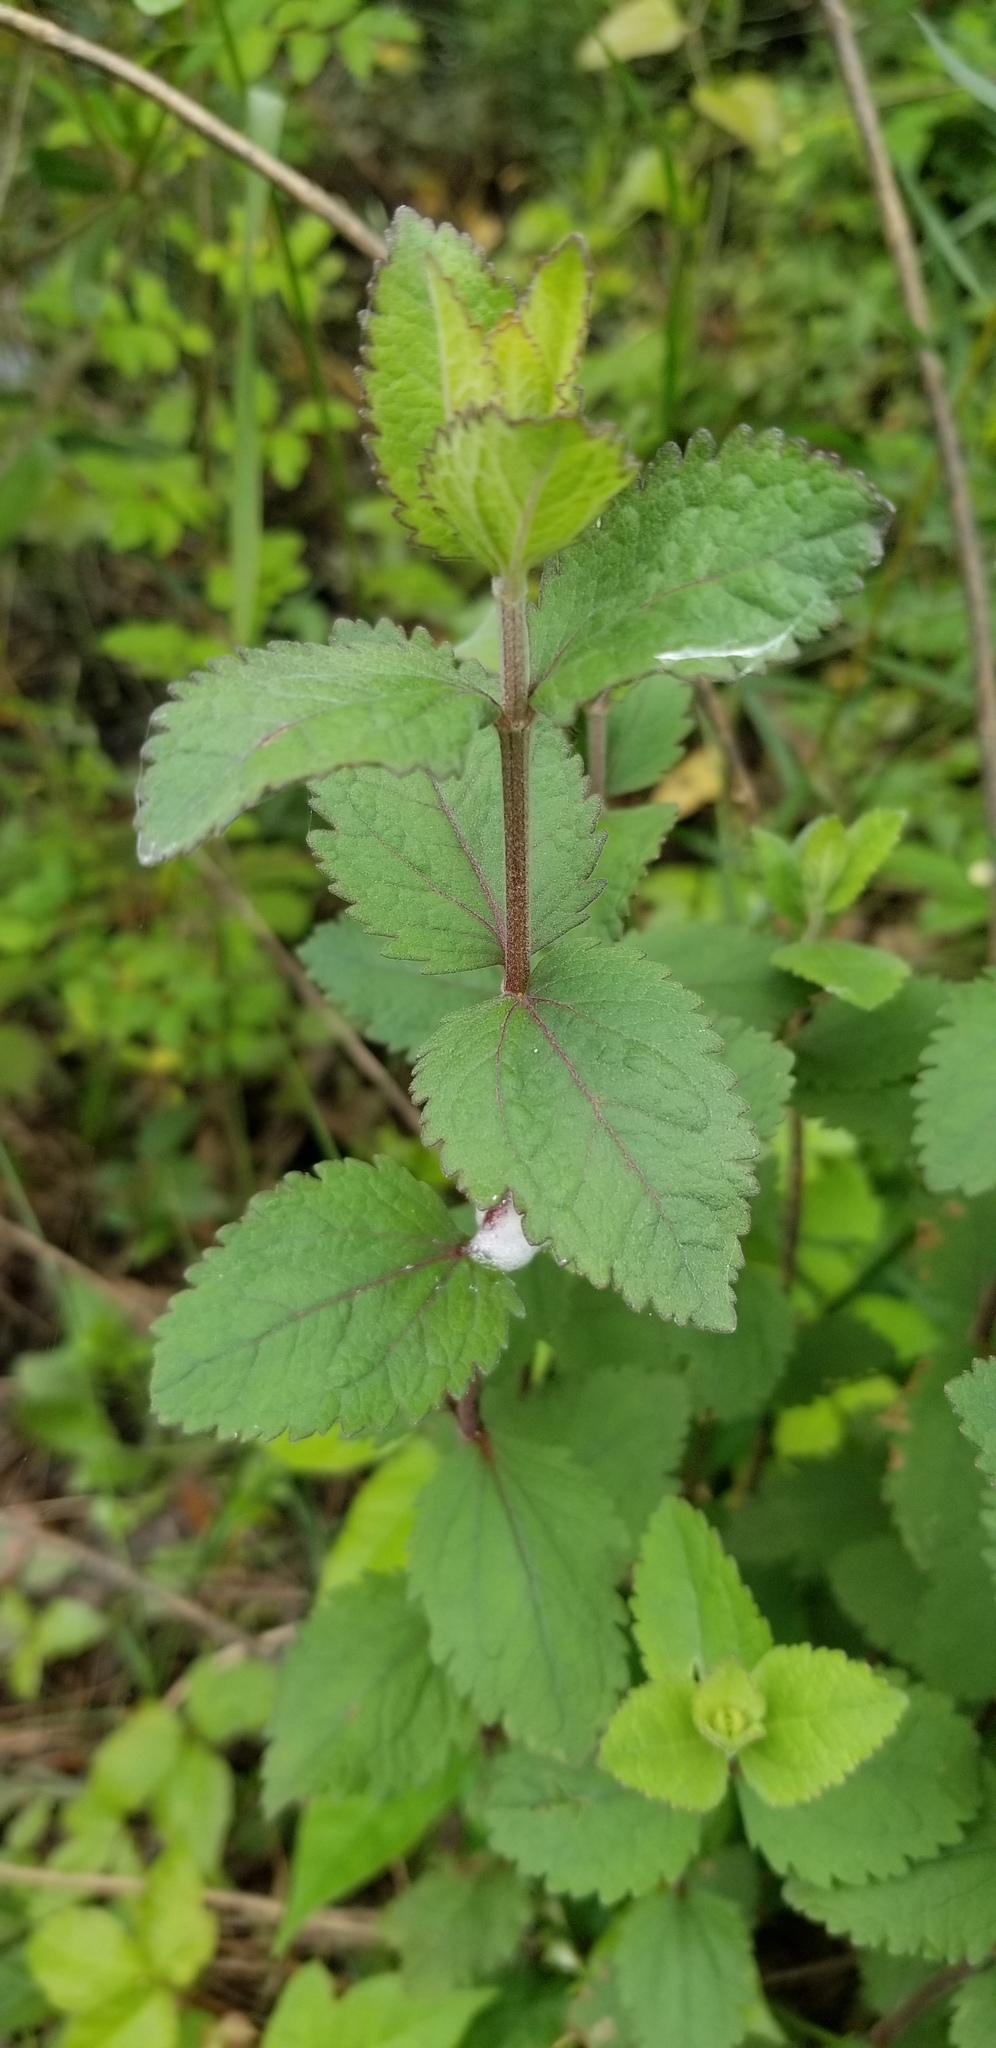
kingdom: Plantae
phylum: Tracheophyta
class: Magnoliopsida
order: Asterales
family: Asteraceae
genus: Eupatorium
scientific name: Eupatorium rotundifolium
